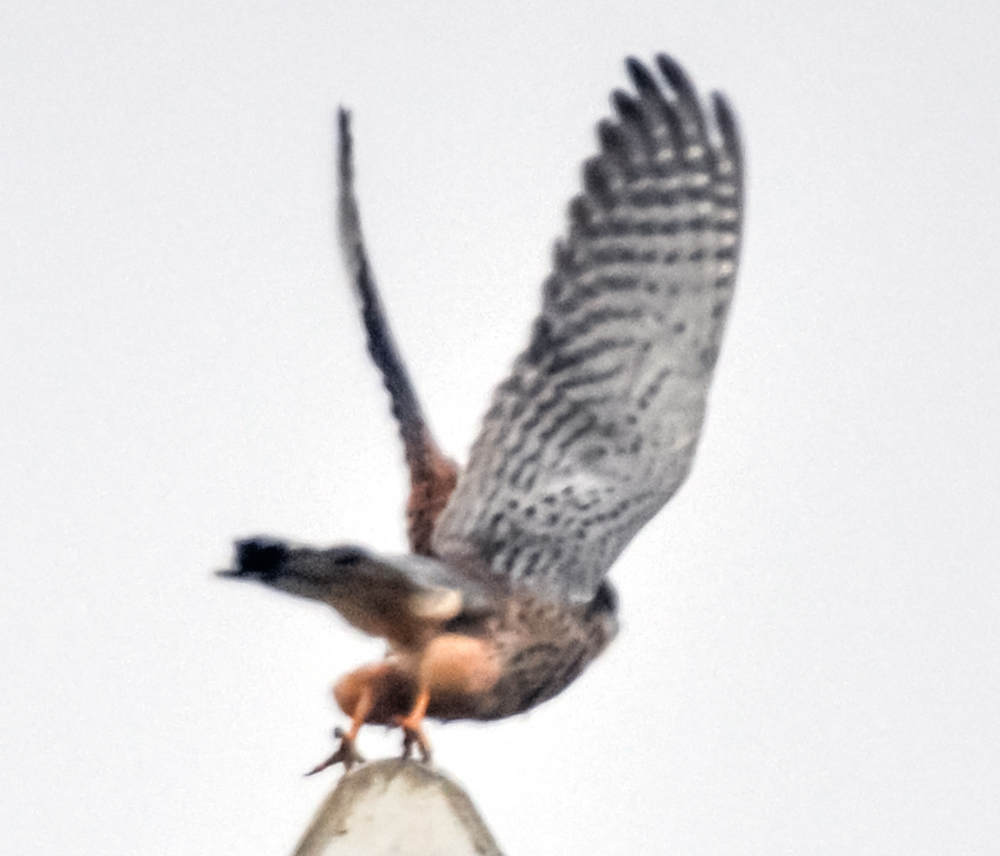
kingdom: Animalia
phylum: Chordata
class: Aves
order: Falconiformes
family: Falconidae
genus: Falco
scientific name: Falco tinnunculus
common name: Common kestrel
